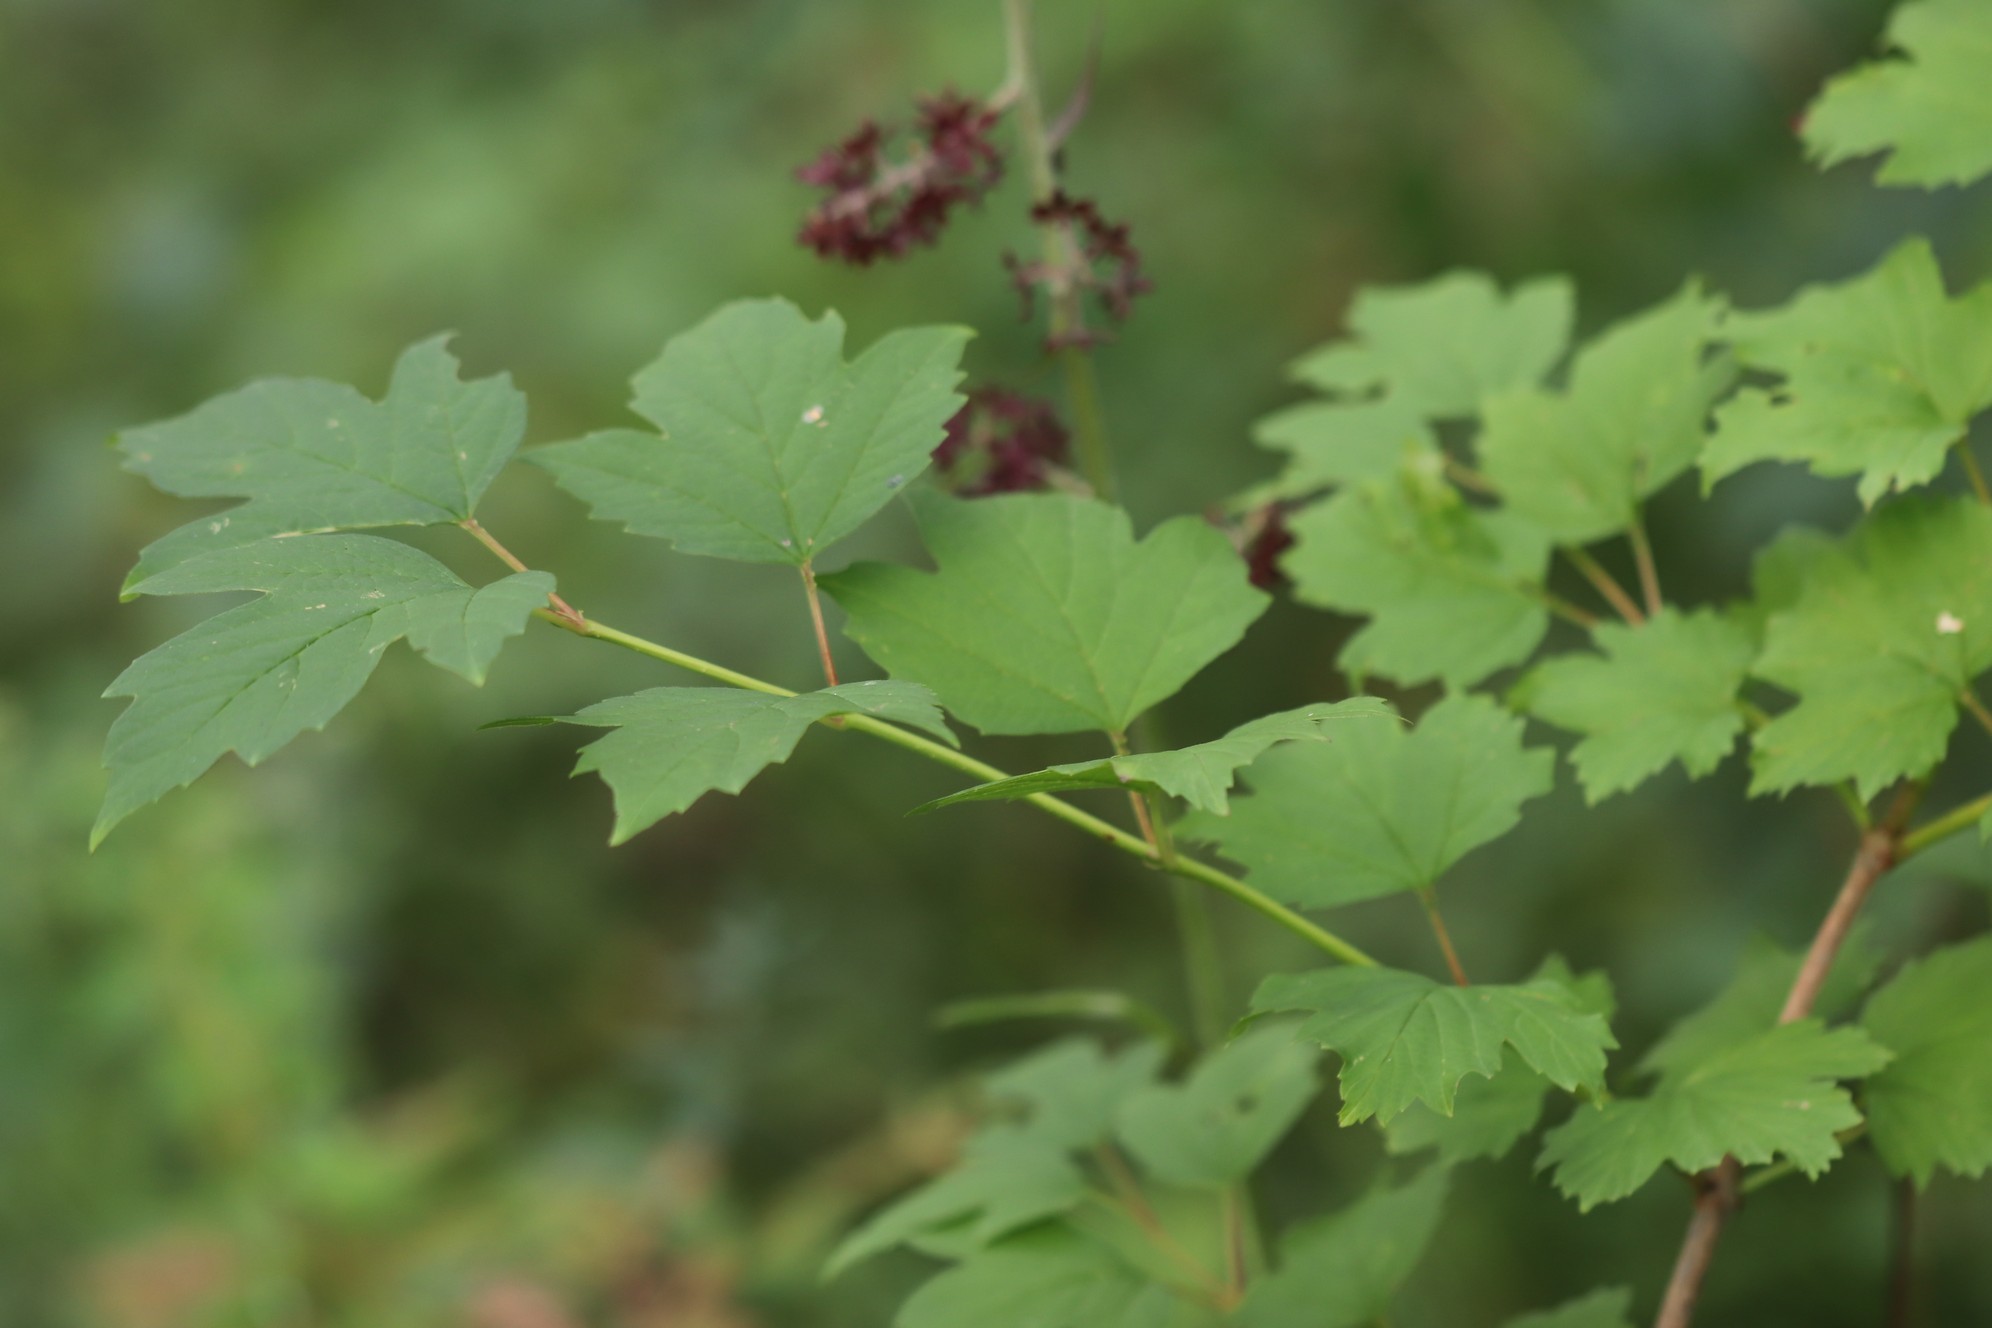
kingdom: Plantae
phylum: Tracheophyta
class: Magnoliopsida
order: Dipsacales
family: Viburnaceae
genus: Viburnum
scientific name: Viburnum opulus
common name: Guelder-rose
